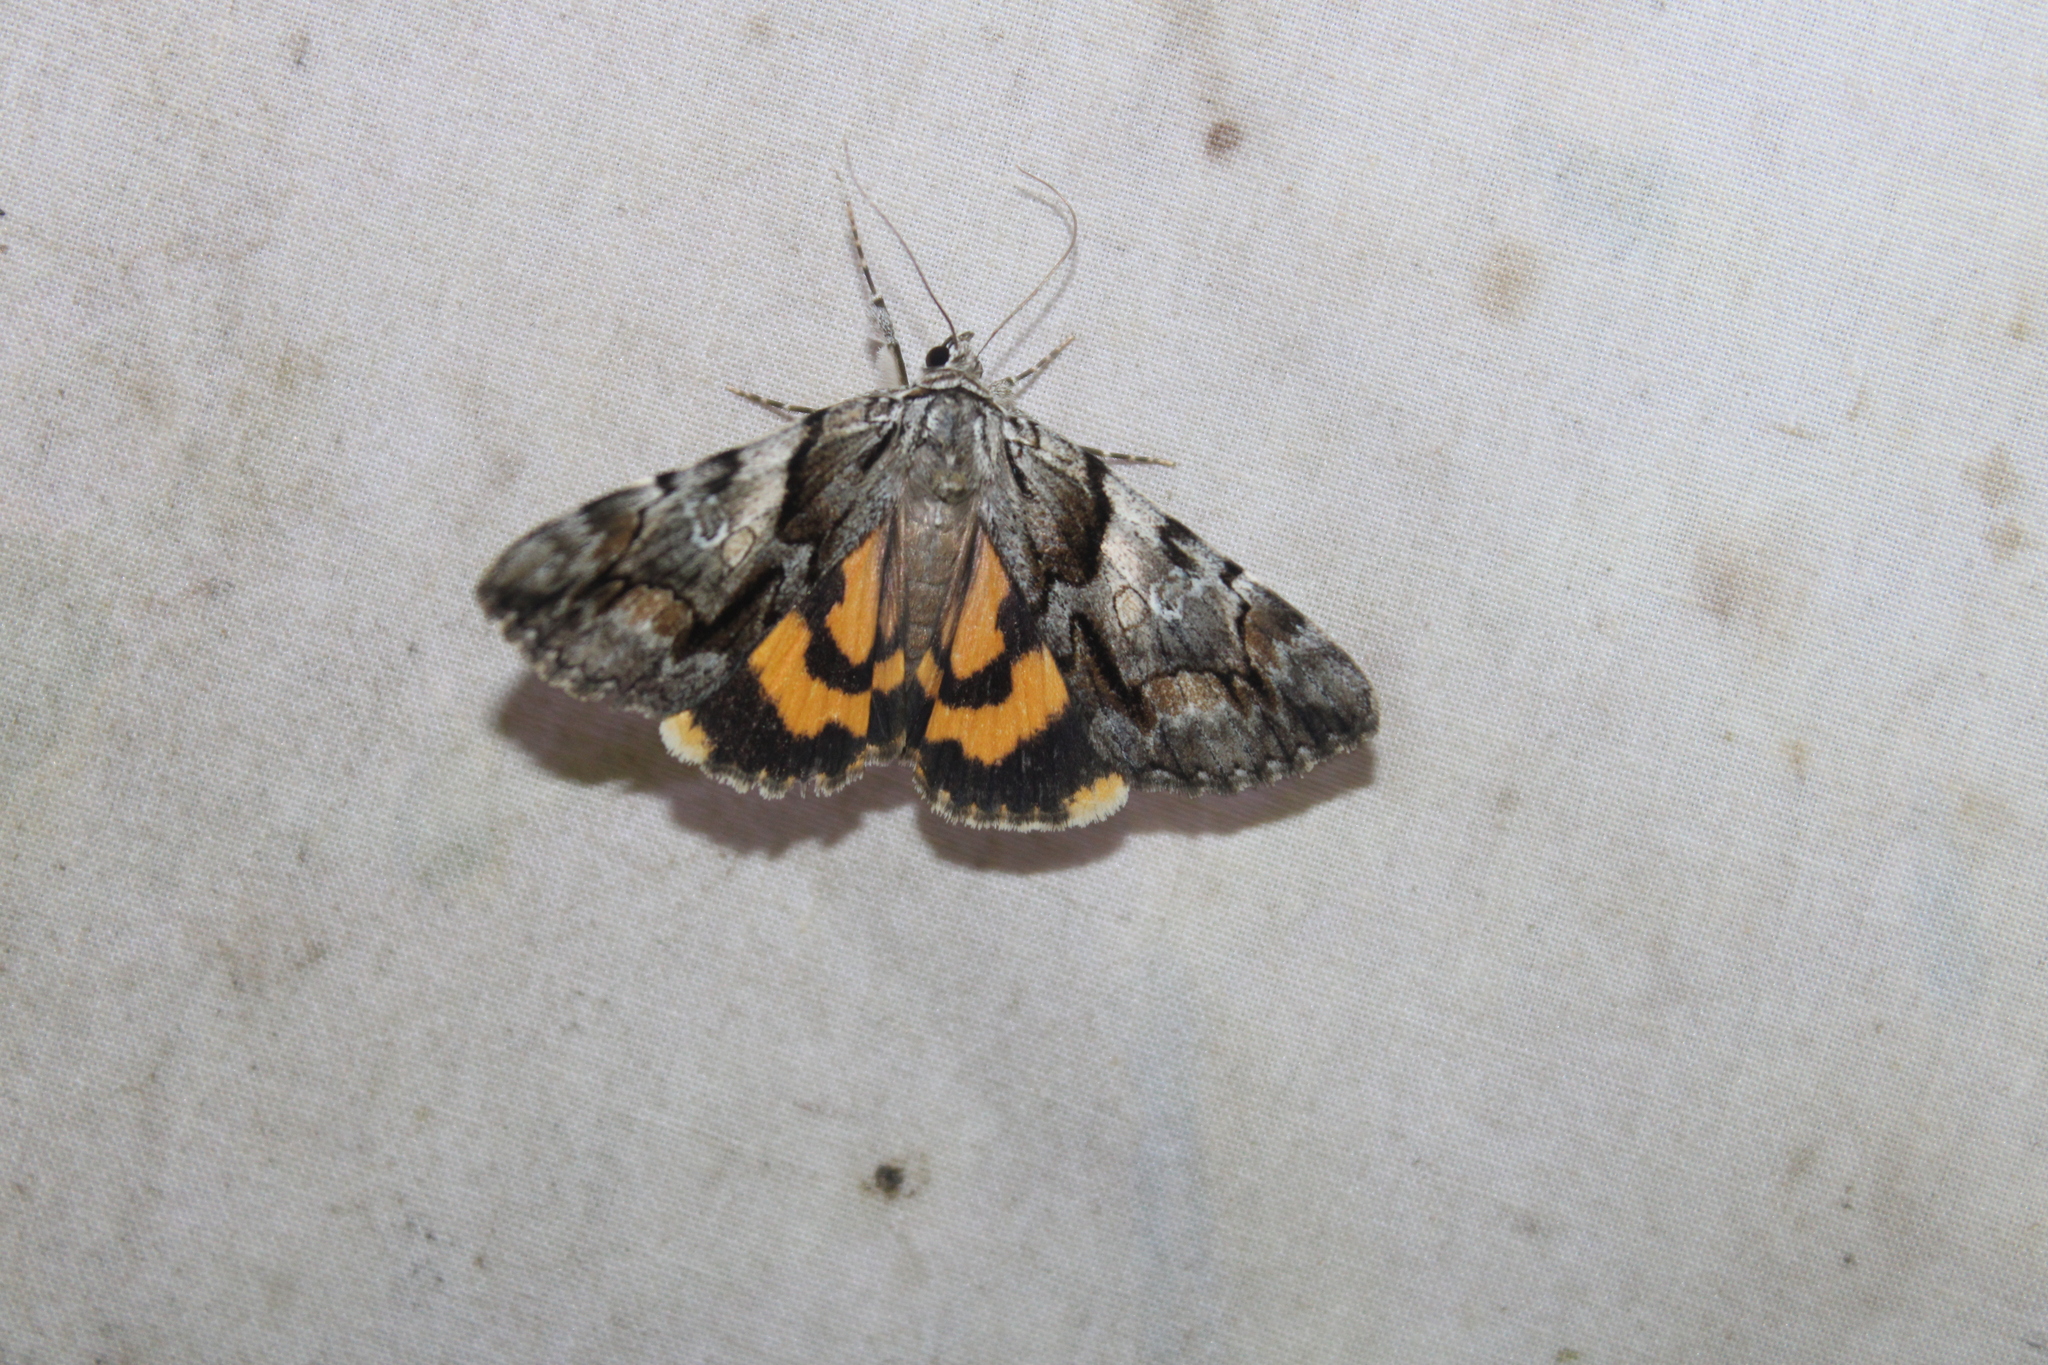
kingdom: Animalia
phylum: Arthropoda
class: Insecta
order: Lepidoptera
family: Erebidae
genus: Catocala
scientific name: Catocala blandula
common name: Charming underwing
